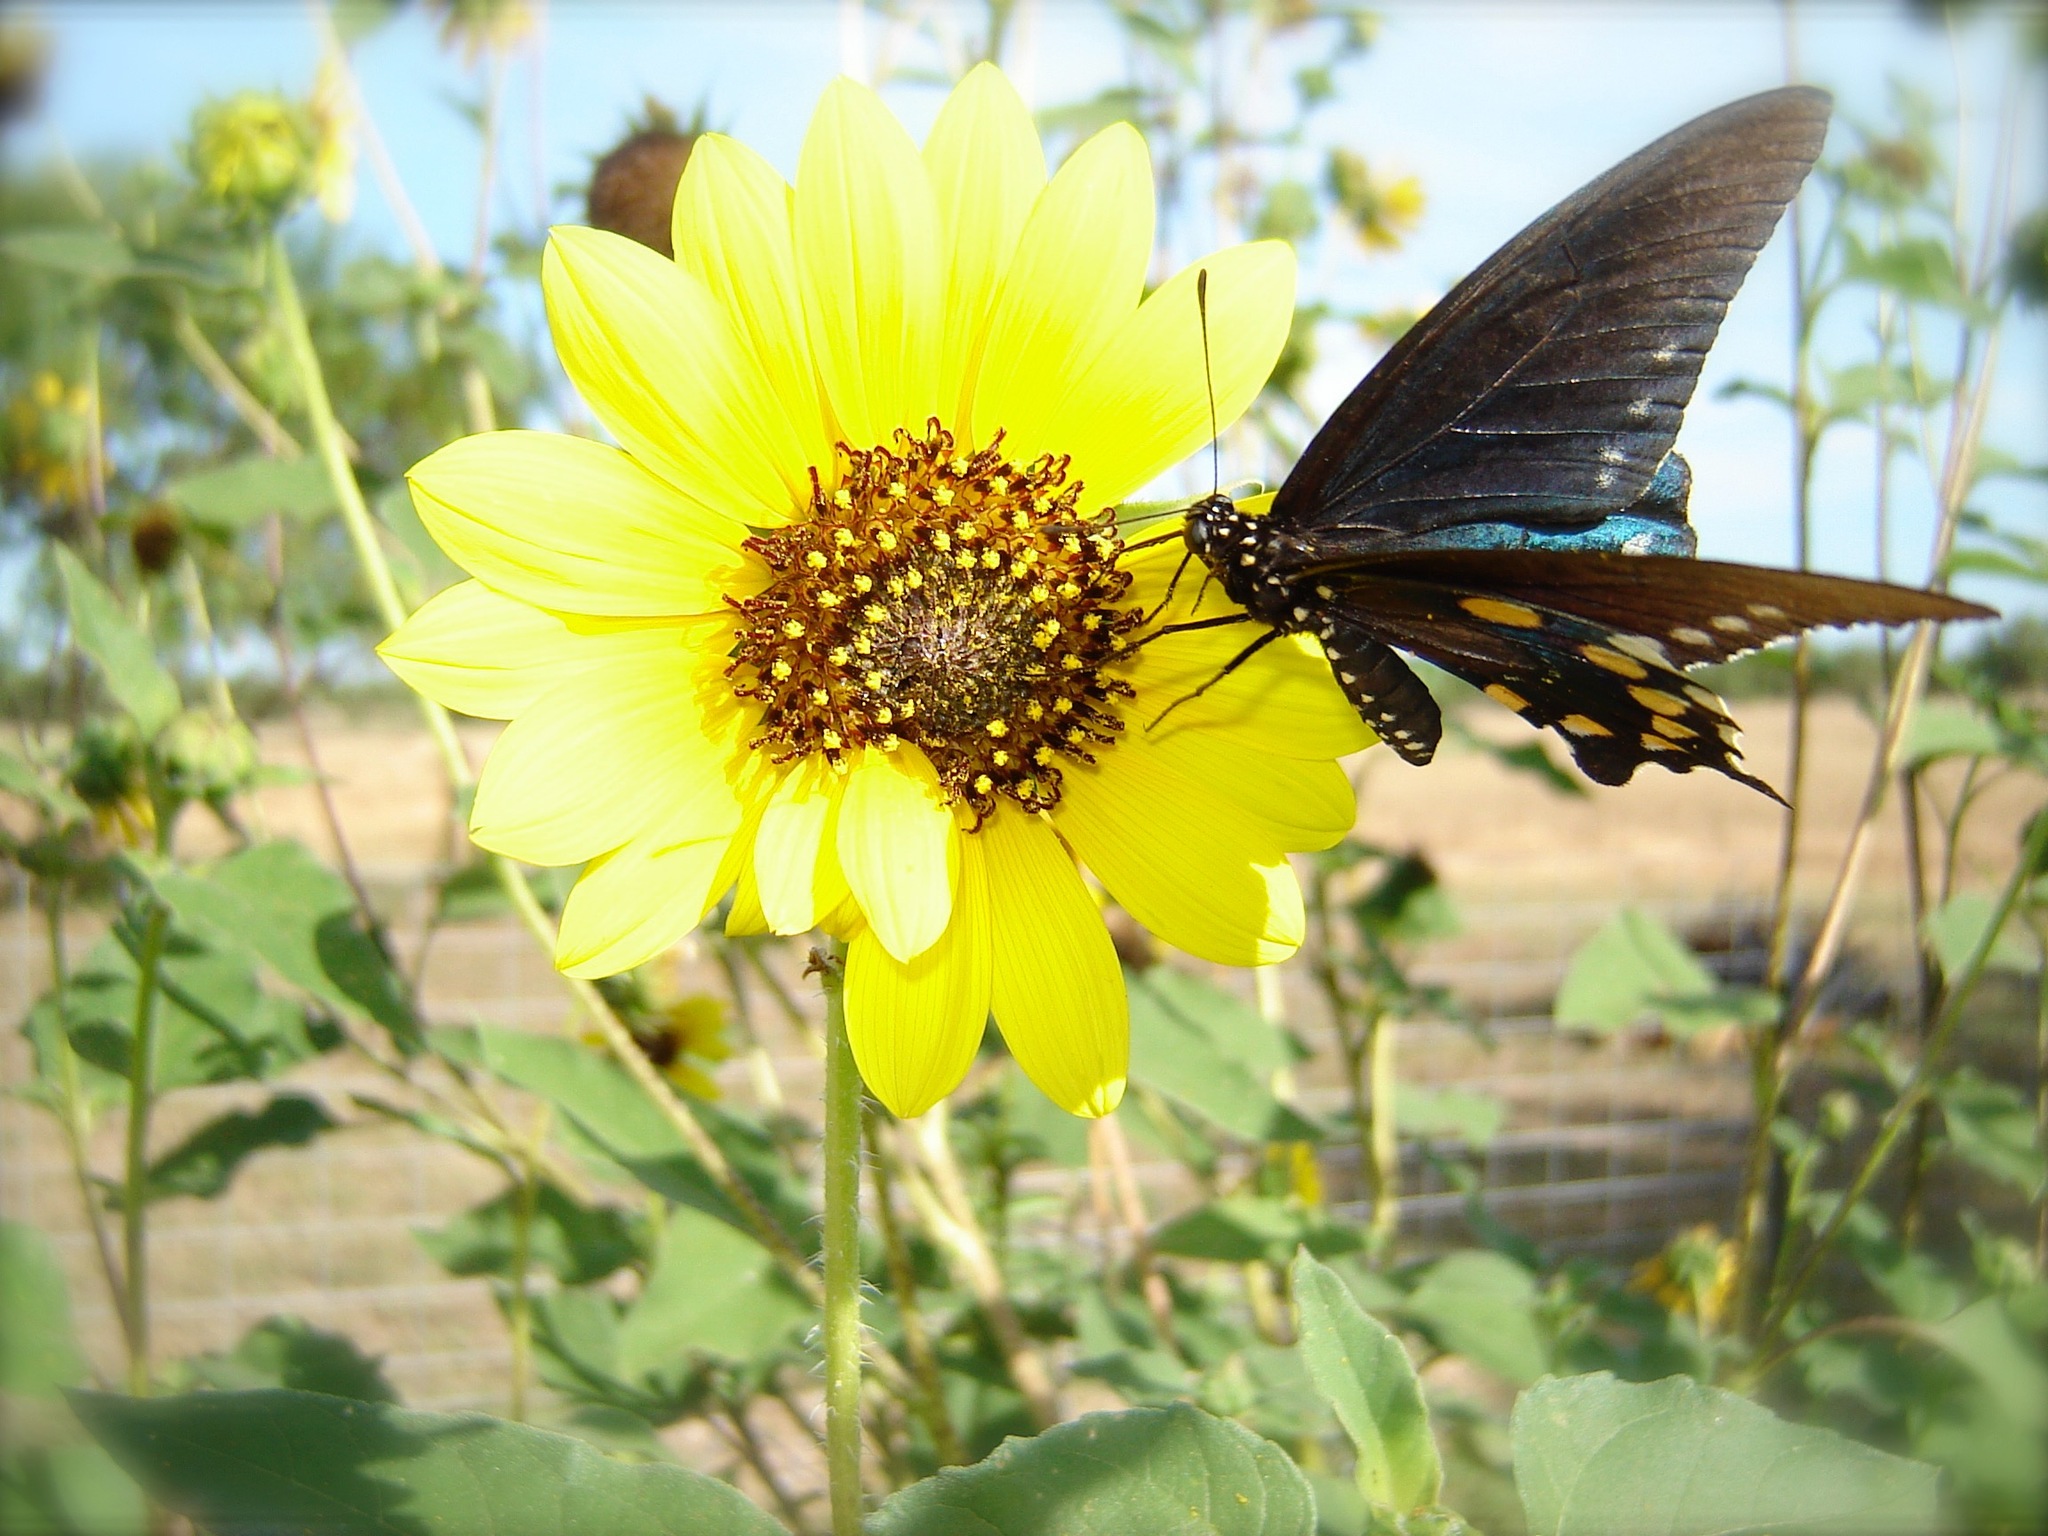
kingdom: Animalia
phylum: Arthropoda
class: Insecta
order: Lepidoptera
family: Papilionidae
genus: Battus
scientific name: Battus philenor
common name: Pipevine swallowtail
